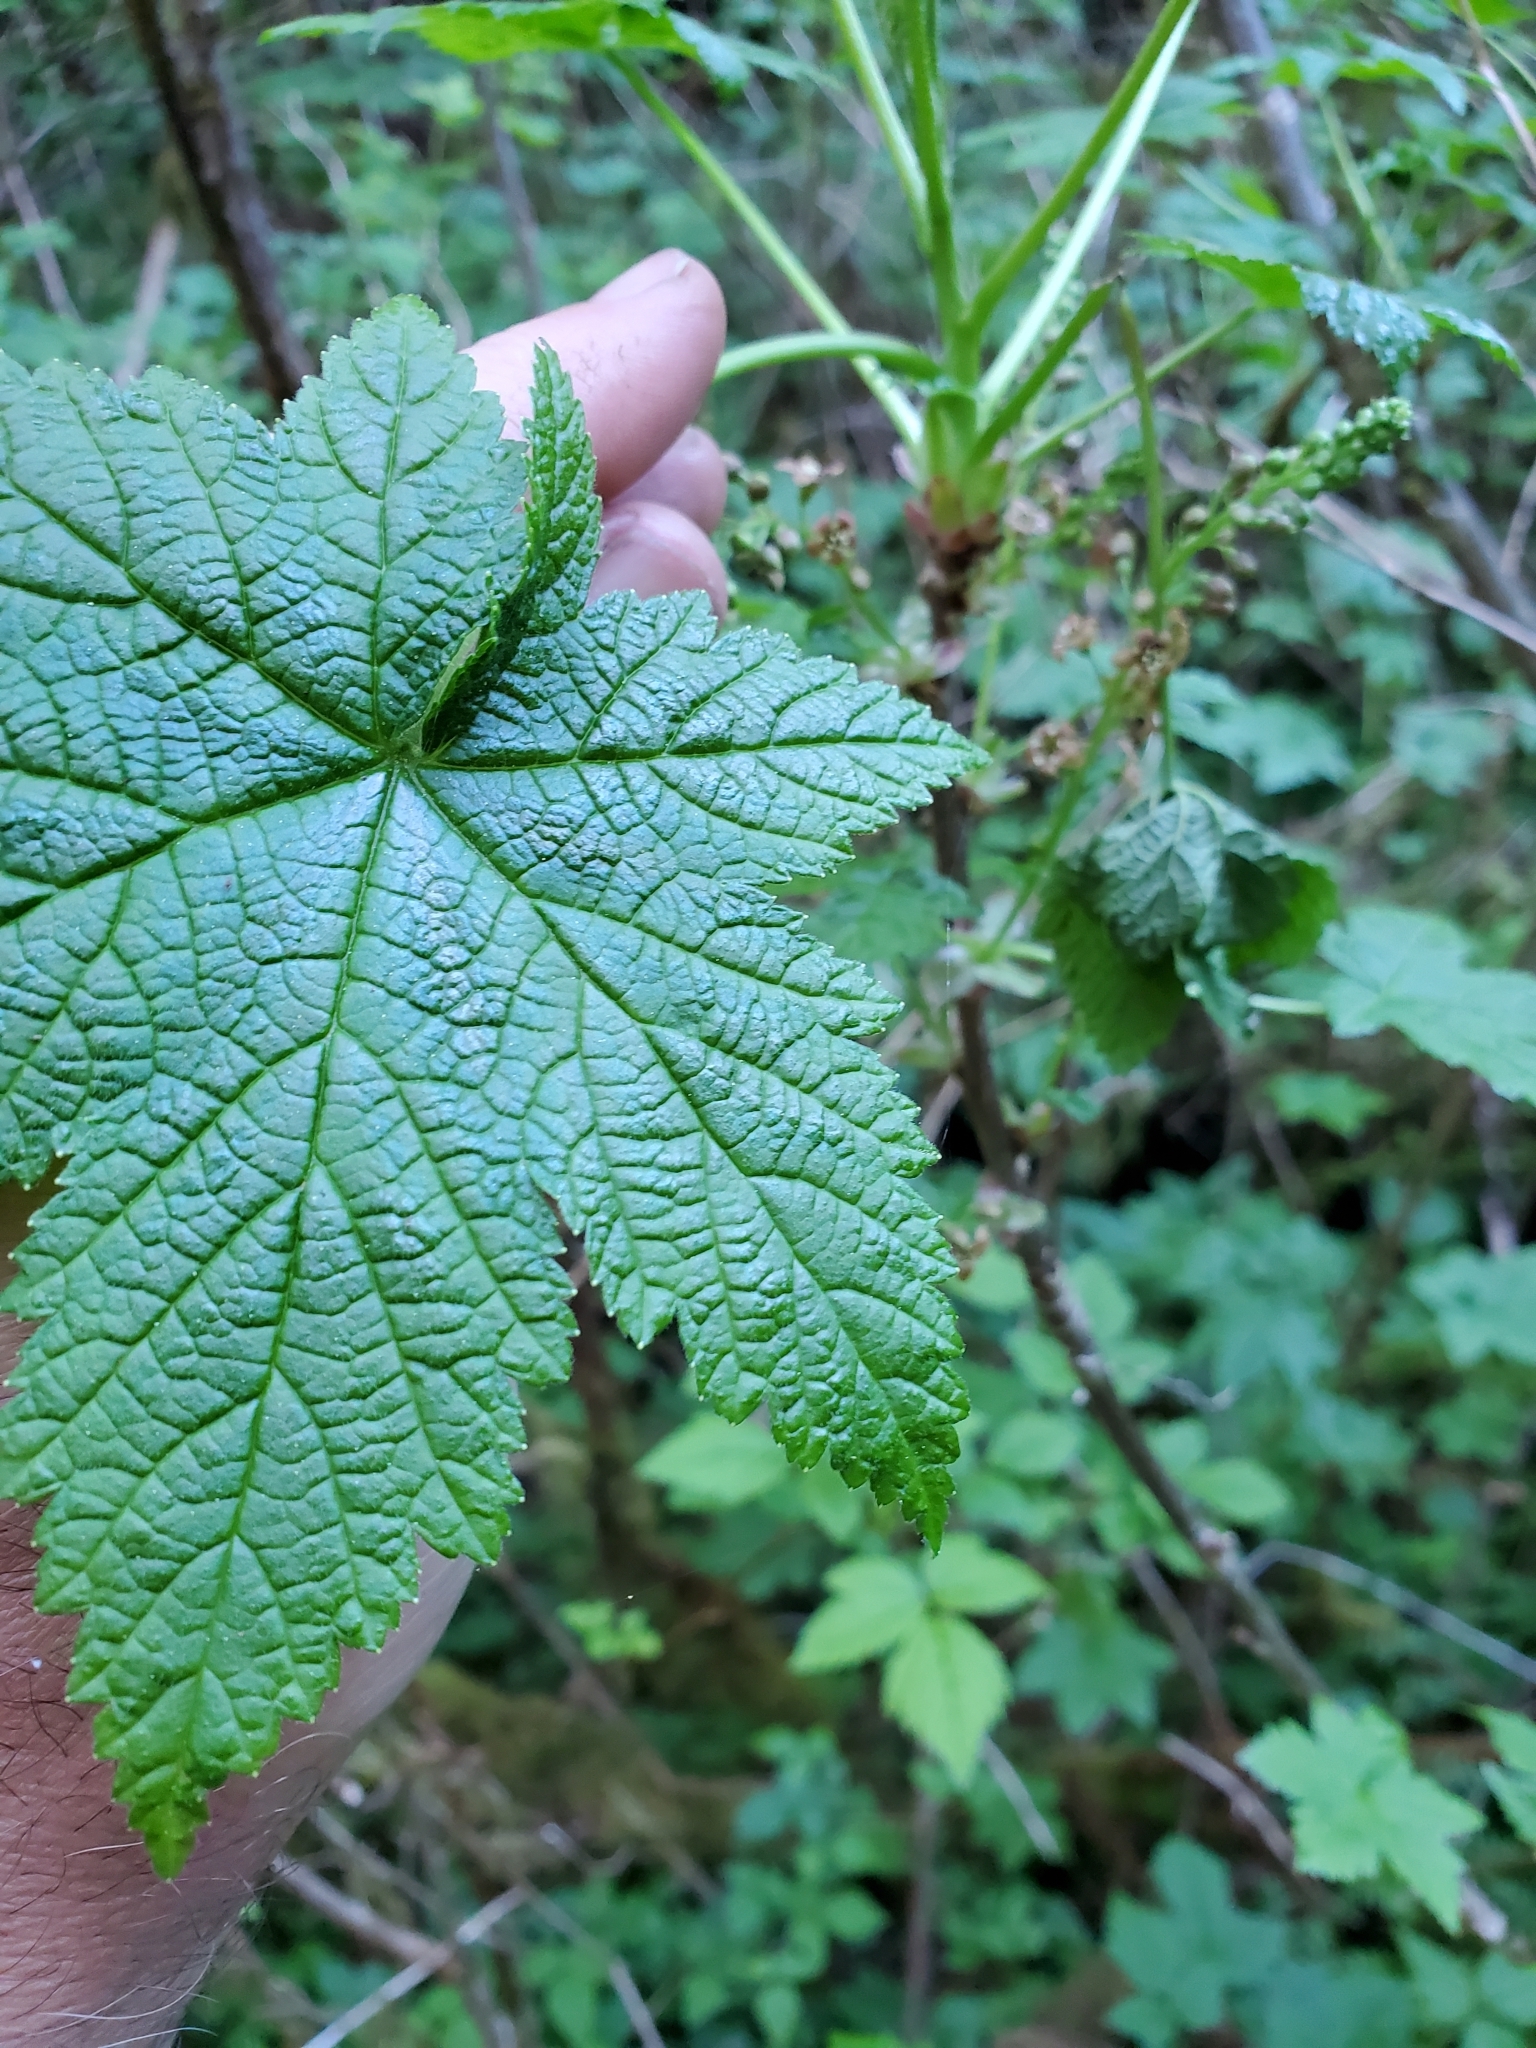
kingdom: Plantae
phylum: Tracheophyta
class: Magnoliopsida
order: Saxifragales
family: Grossulariaceae
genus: Ribes
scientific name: Ribes bracteosum
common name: California black currant
